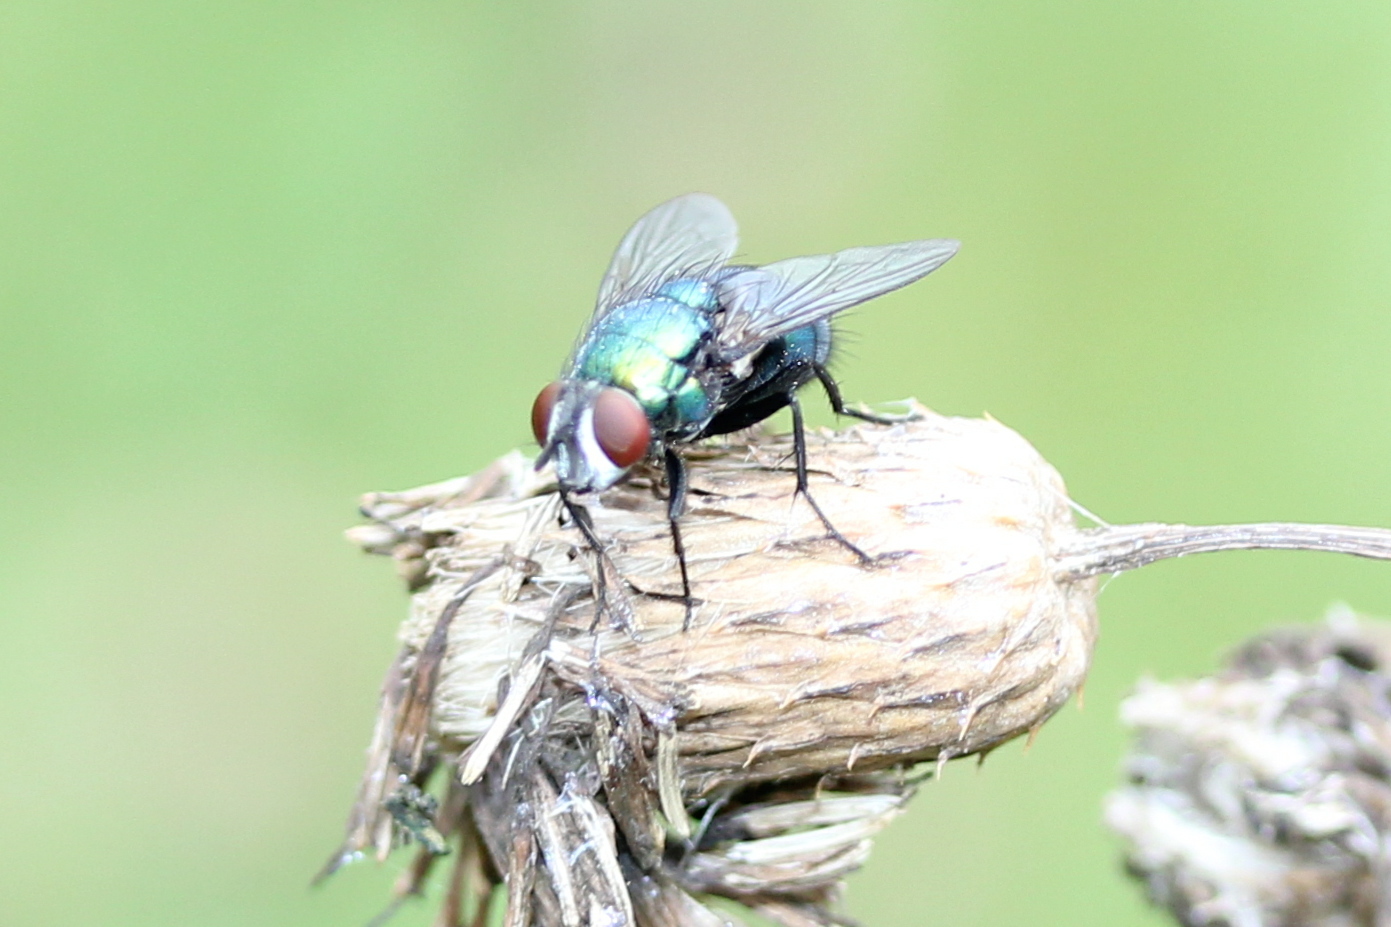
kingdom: Animalia
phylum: Arthropoda
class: Insecta
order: Diptera
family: Calliphoridae
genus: Lucilia
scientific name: Lucilia silvarum
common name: Marsh greenbottle
